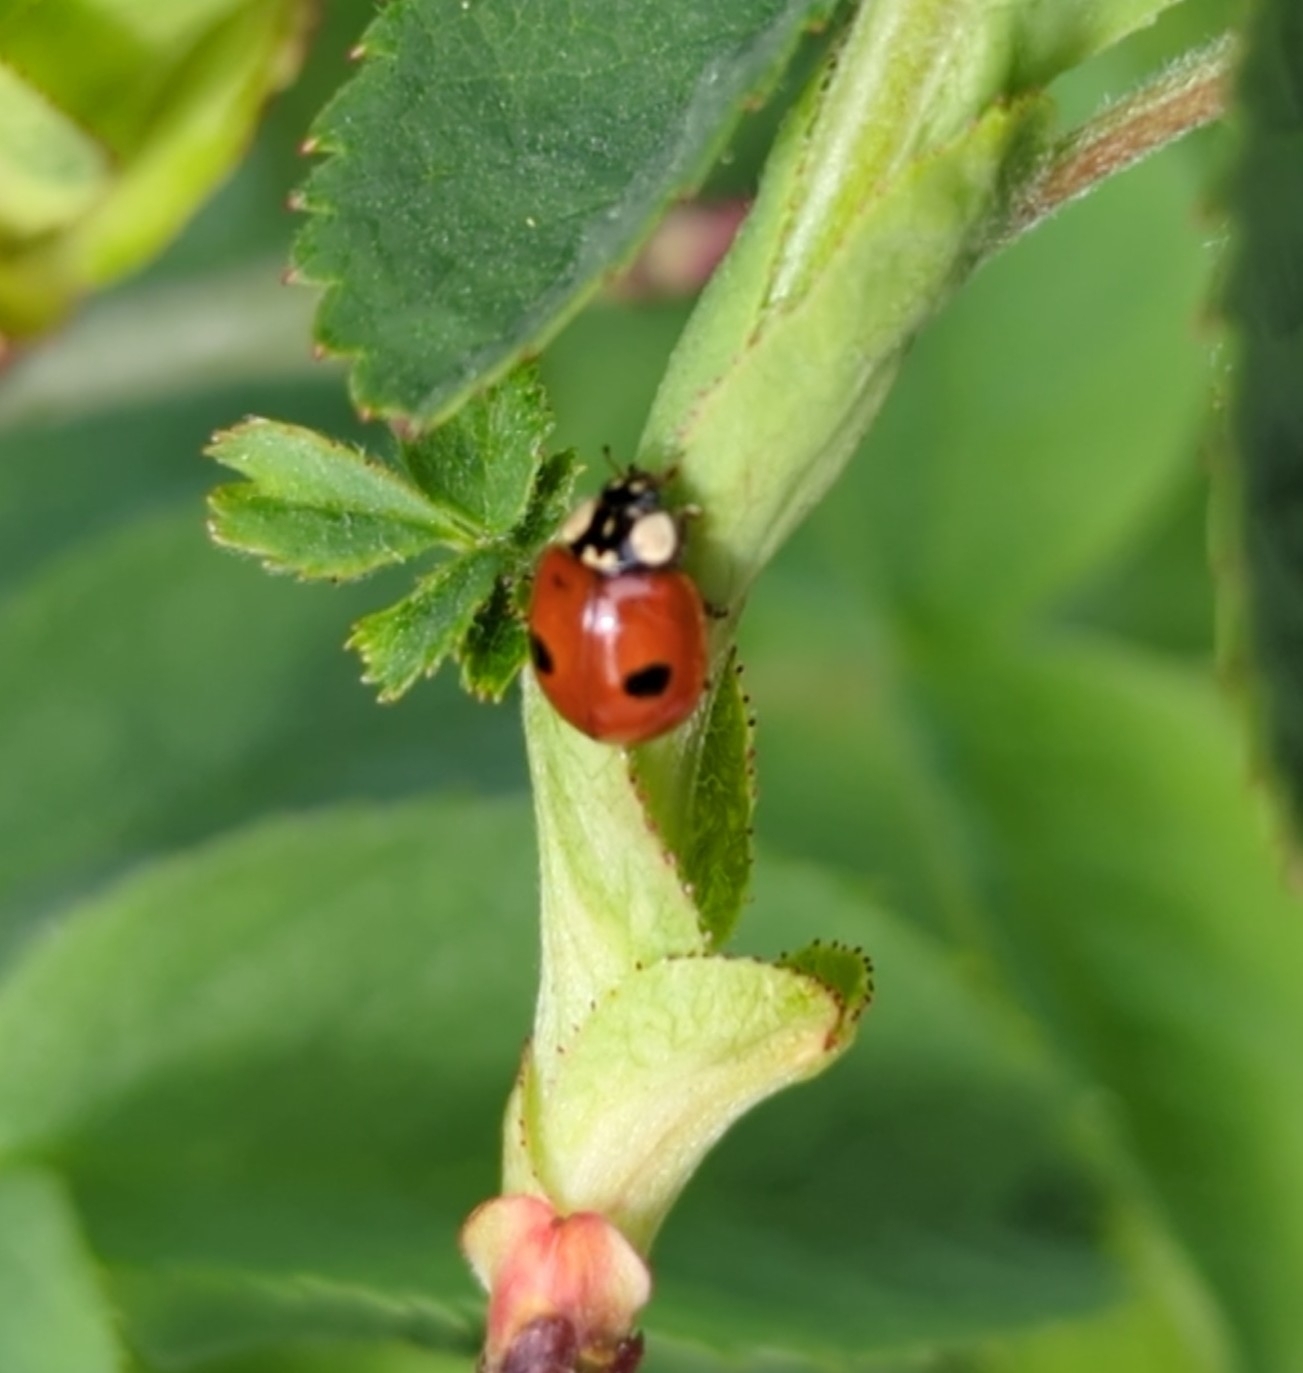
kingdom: Animalia
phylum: Arthropoda
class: Insecta
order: Coleoptera
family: Coccinellidae
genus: Adalia
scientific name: Adalia bipunctata
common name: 2-spot ladybird
